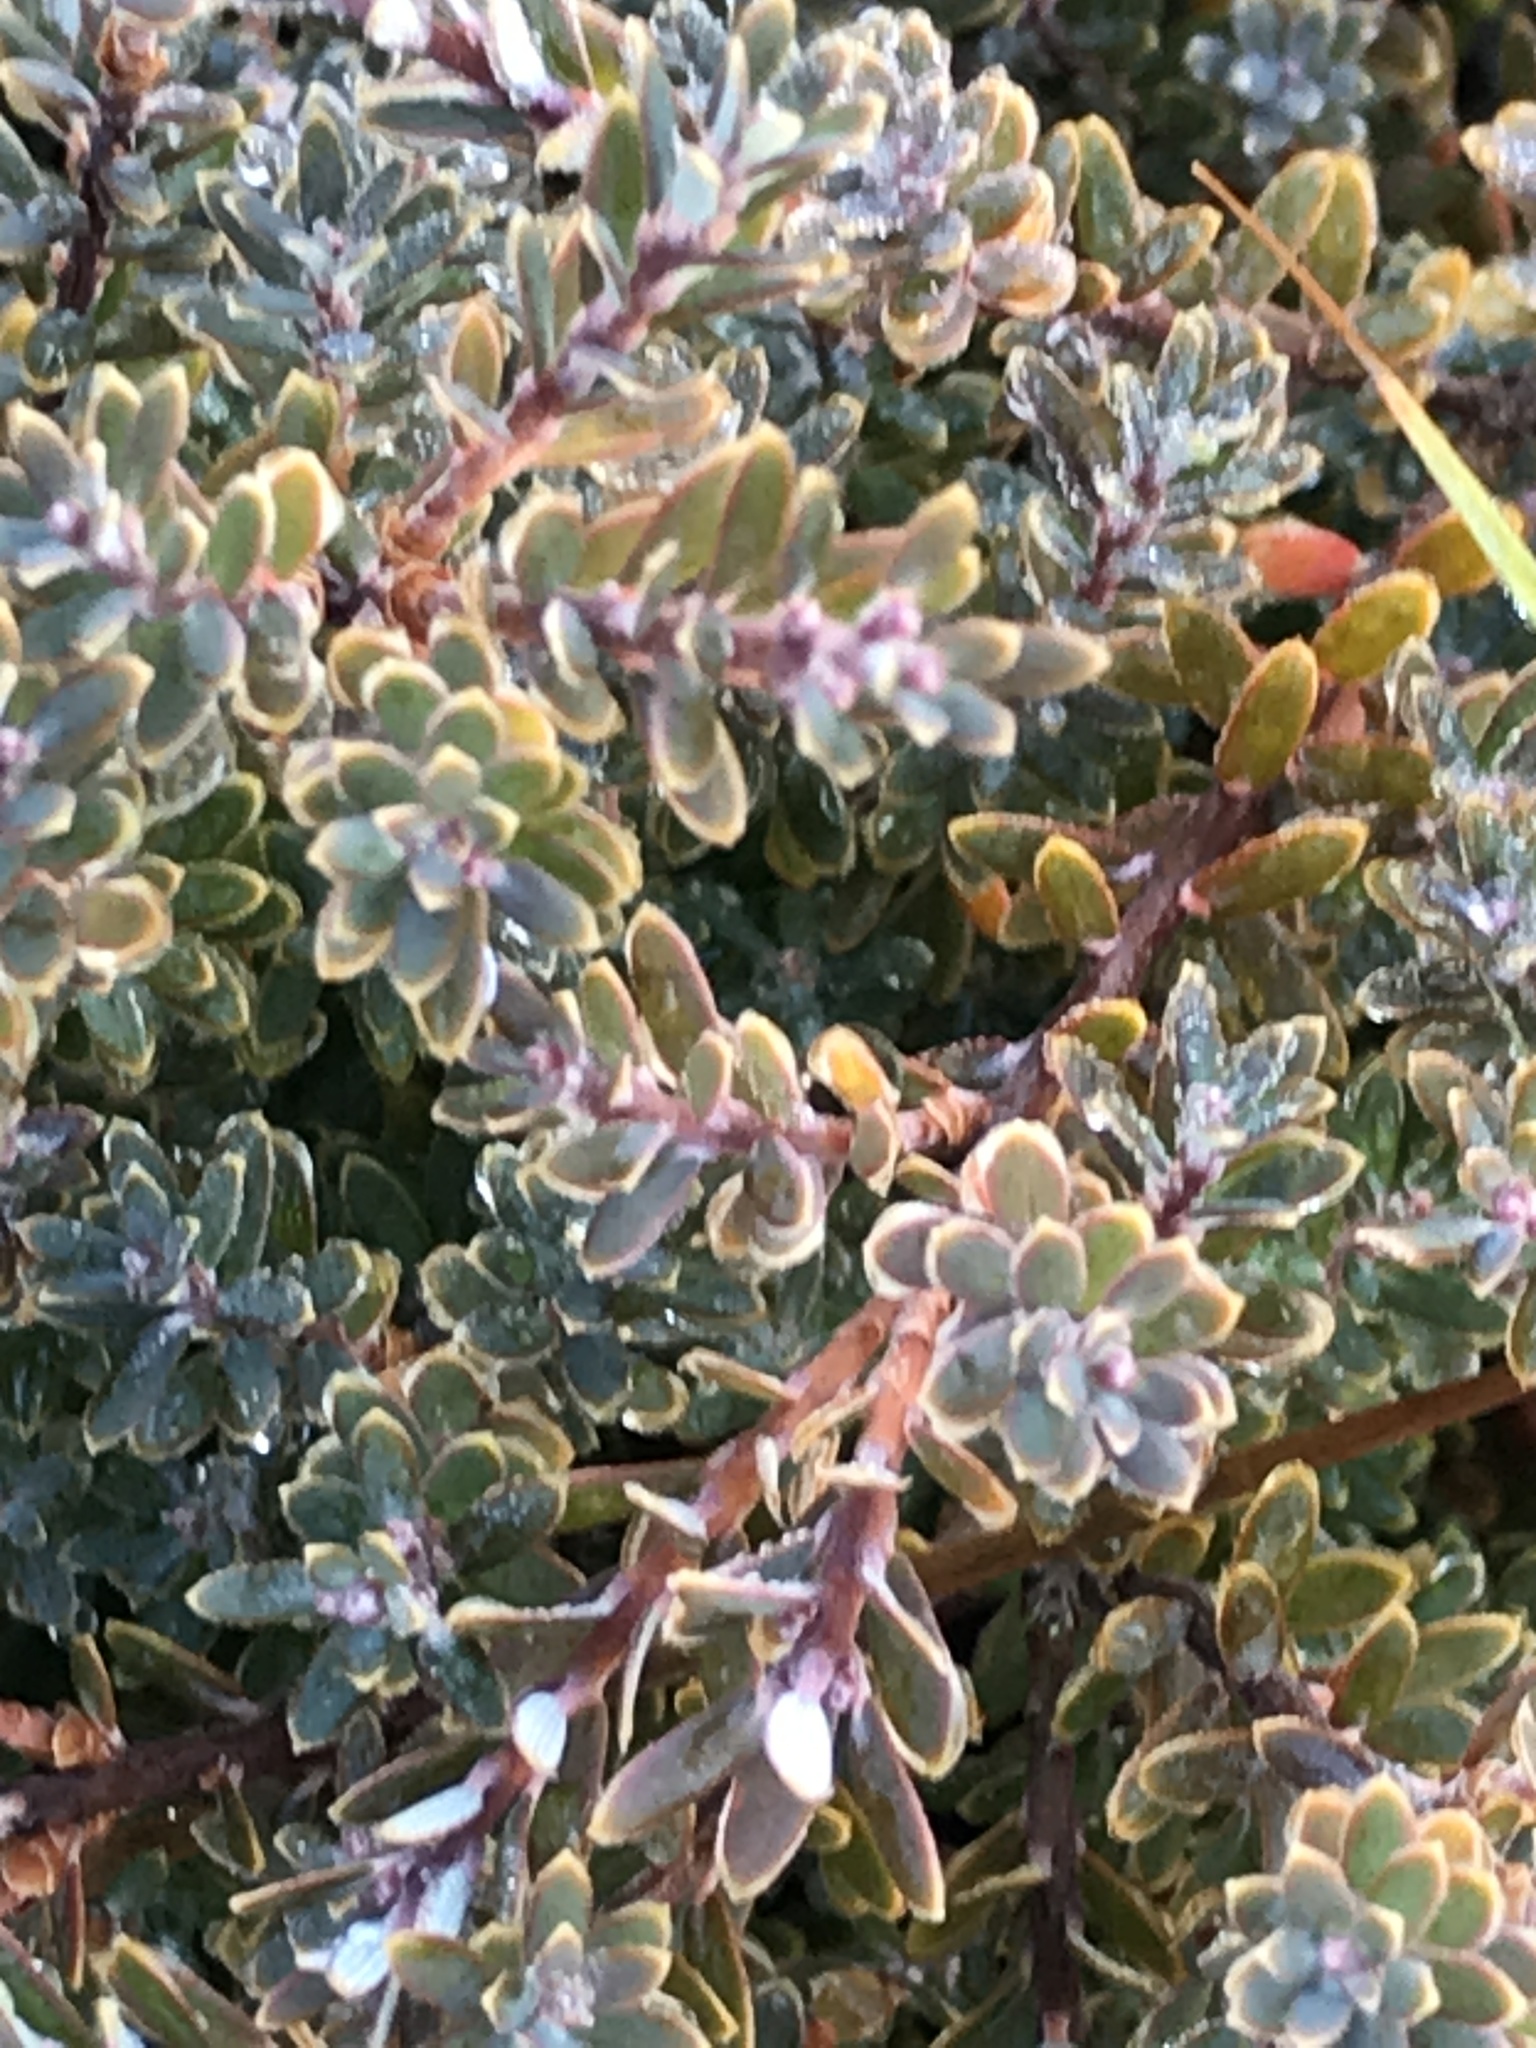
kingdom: Plantae
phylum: Tracheophyta
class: Magnoliopsida
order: Ericales
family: Ericaceae
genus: Acrothamnus
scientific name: Acrothamnus colensoi
